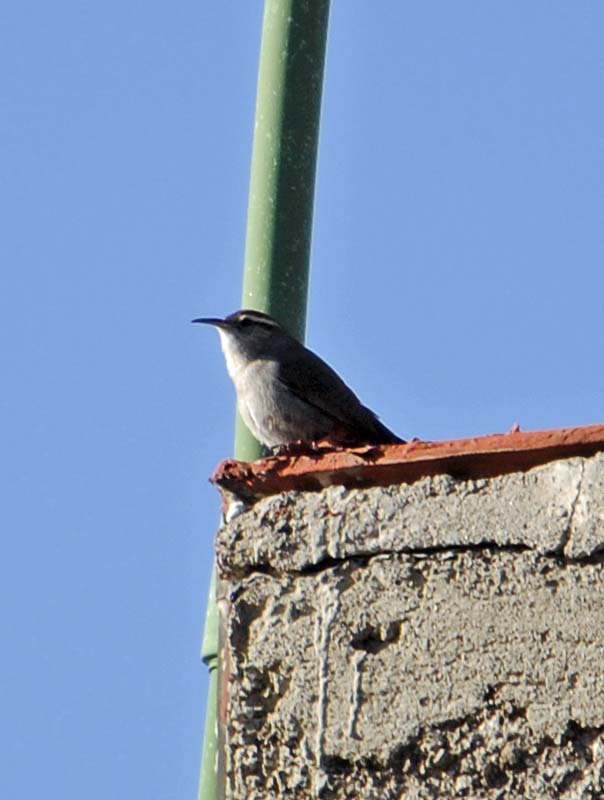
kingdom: Animalia
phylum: Chordata
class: Aves
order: Passeriformes
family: Troglodytidae
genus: Thryomanes
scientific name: Thryomanes bewickii
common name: Bewick's wren
